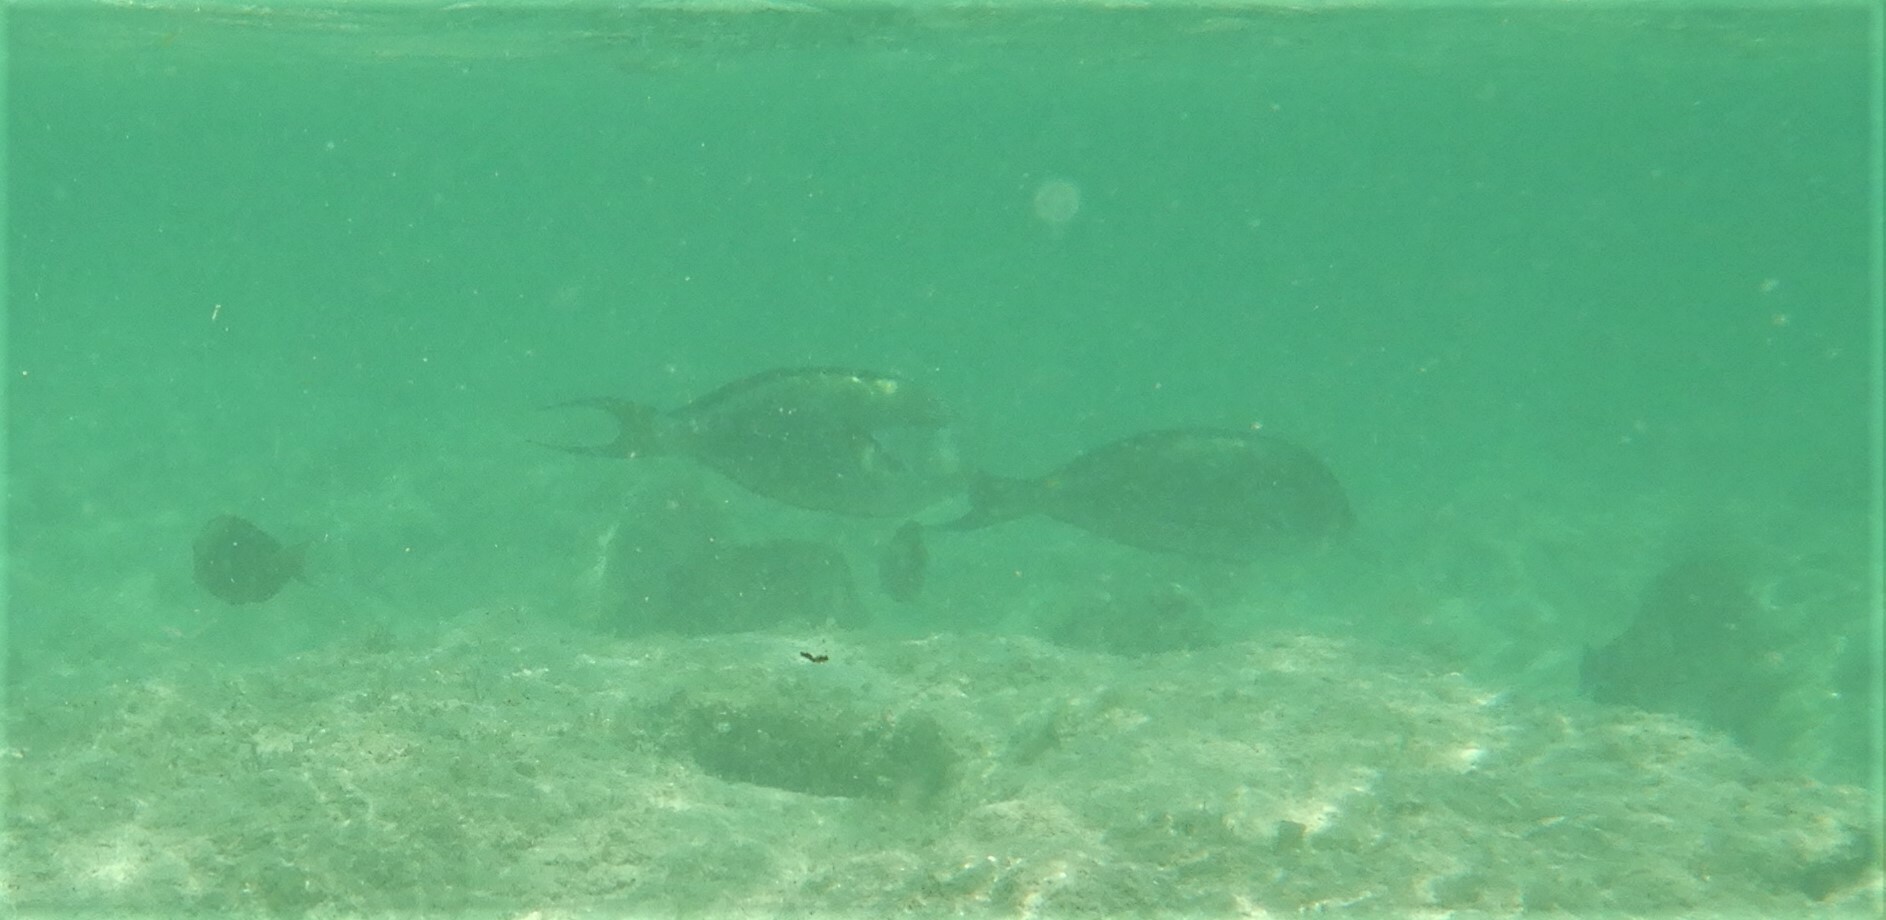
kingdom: Animalia
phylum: Chordata
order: Perciformes
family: Acanthuridae
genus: Acanthurus
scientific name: Acanthurus sohal
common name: Red sea surgeonfish
